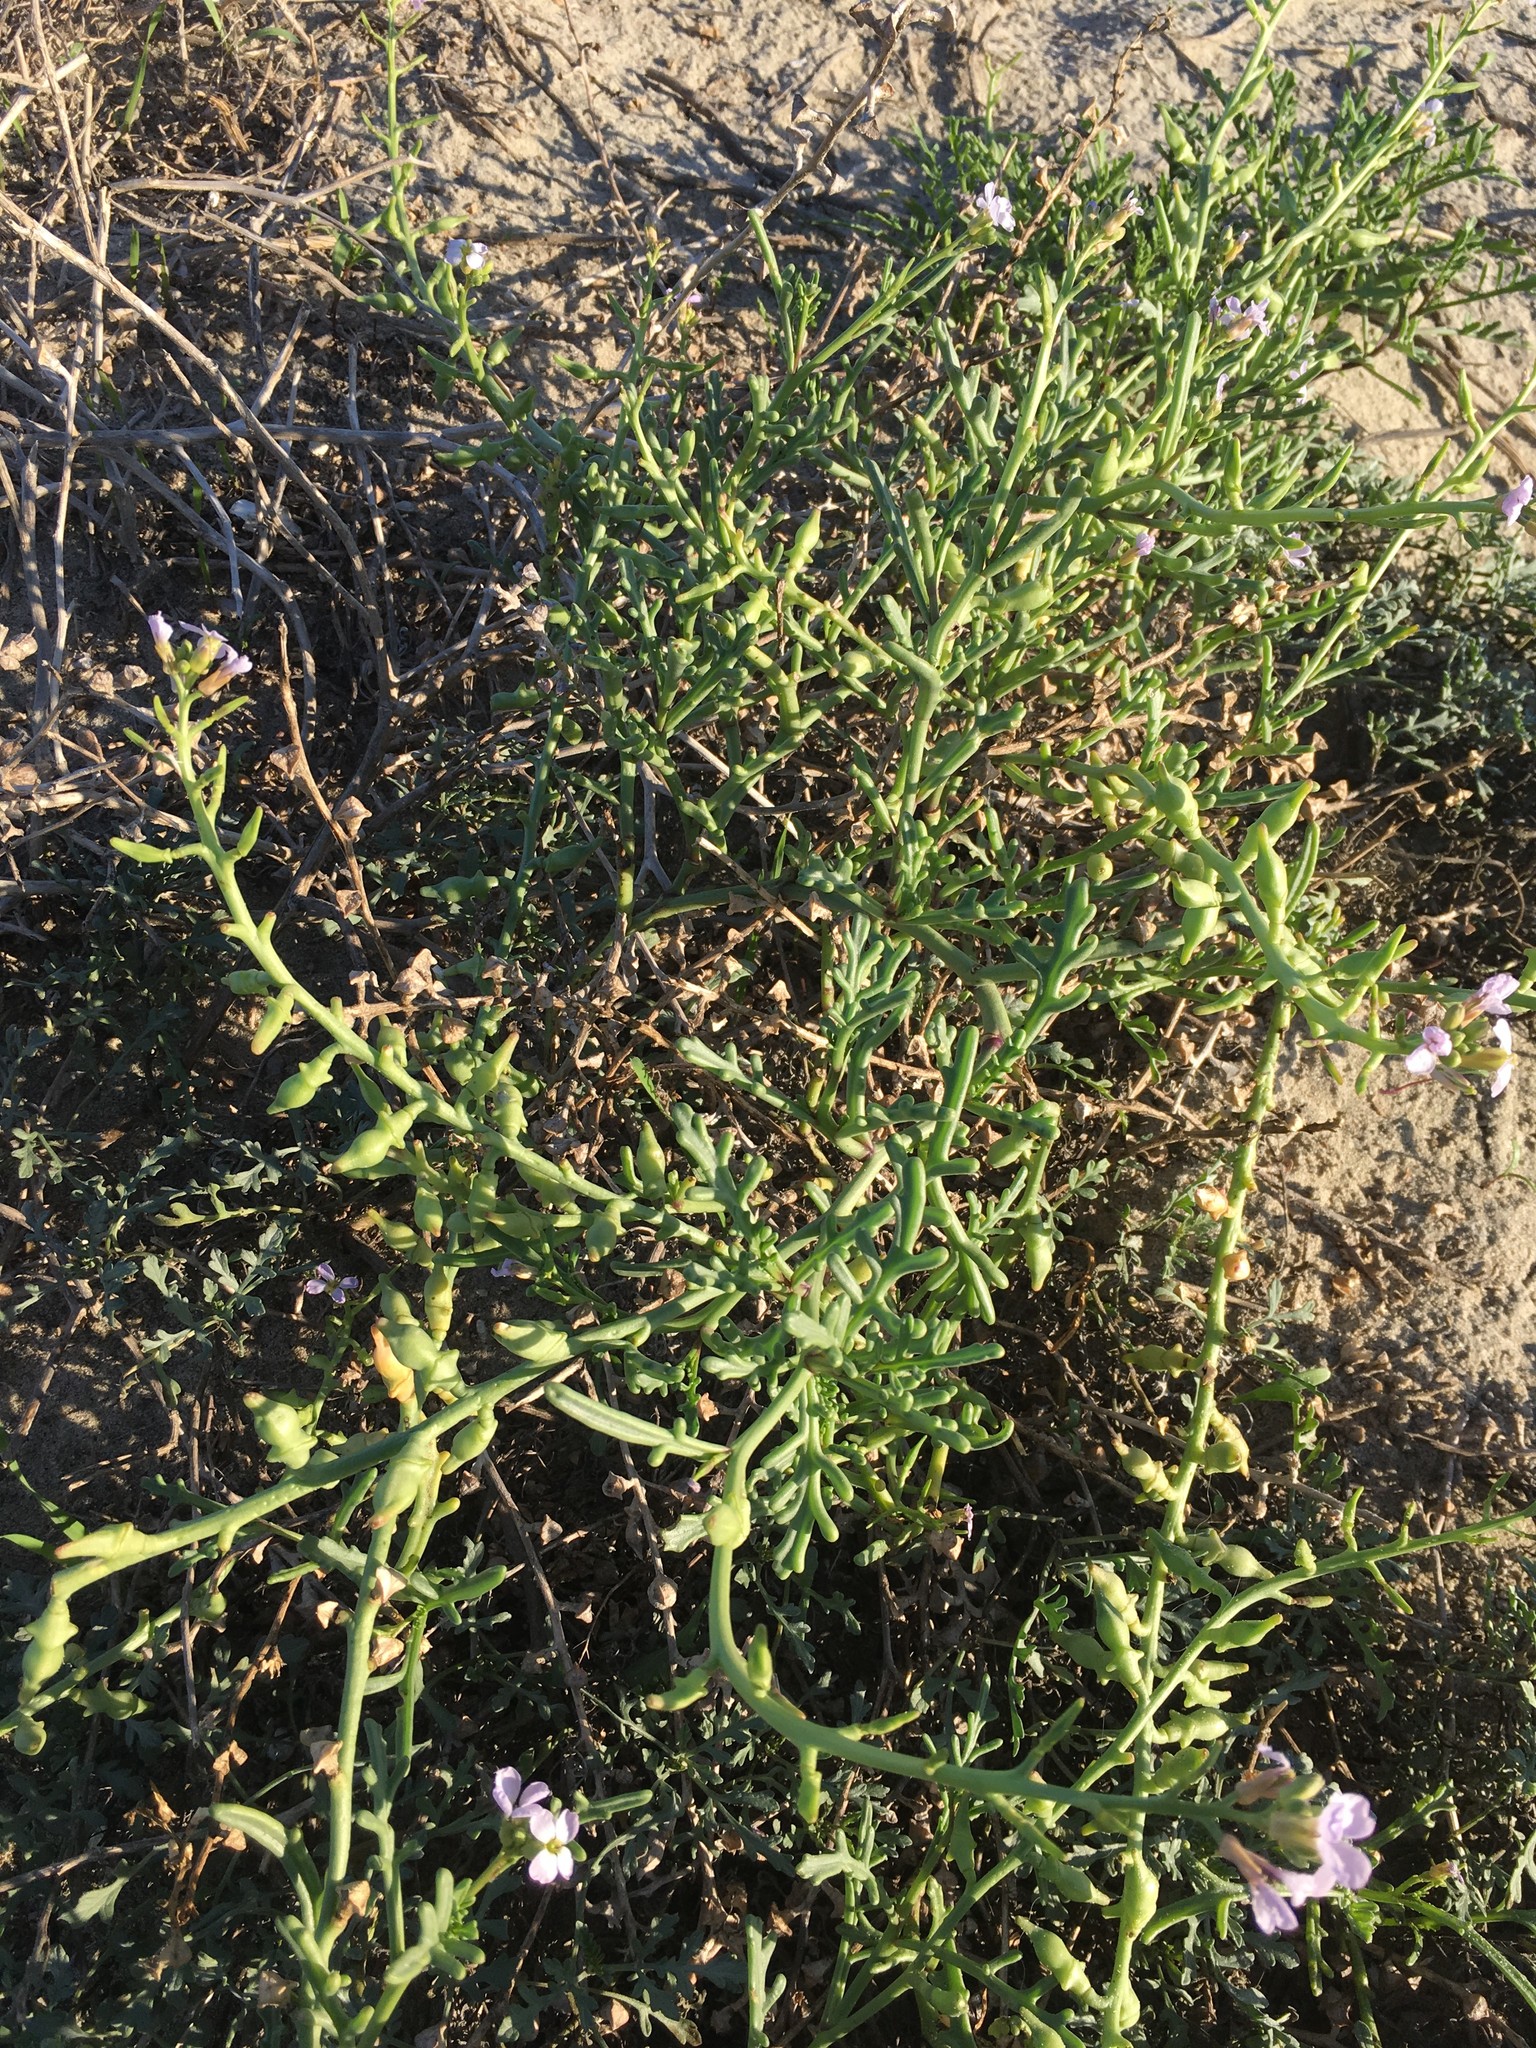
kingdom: Plantae
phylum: Tracheophyta
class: Magnoliopsida
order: Brassicales
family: Brassicaceae
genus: Cakile
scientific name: Cakile maritima
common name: Sea rocket
